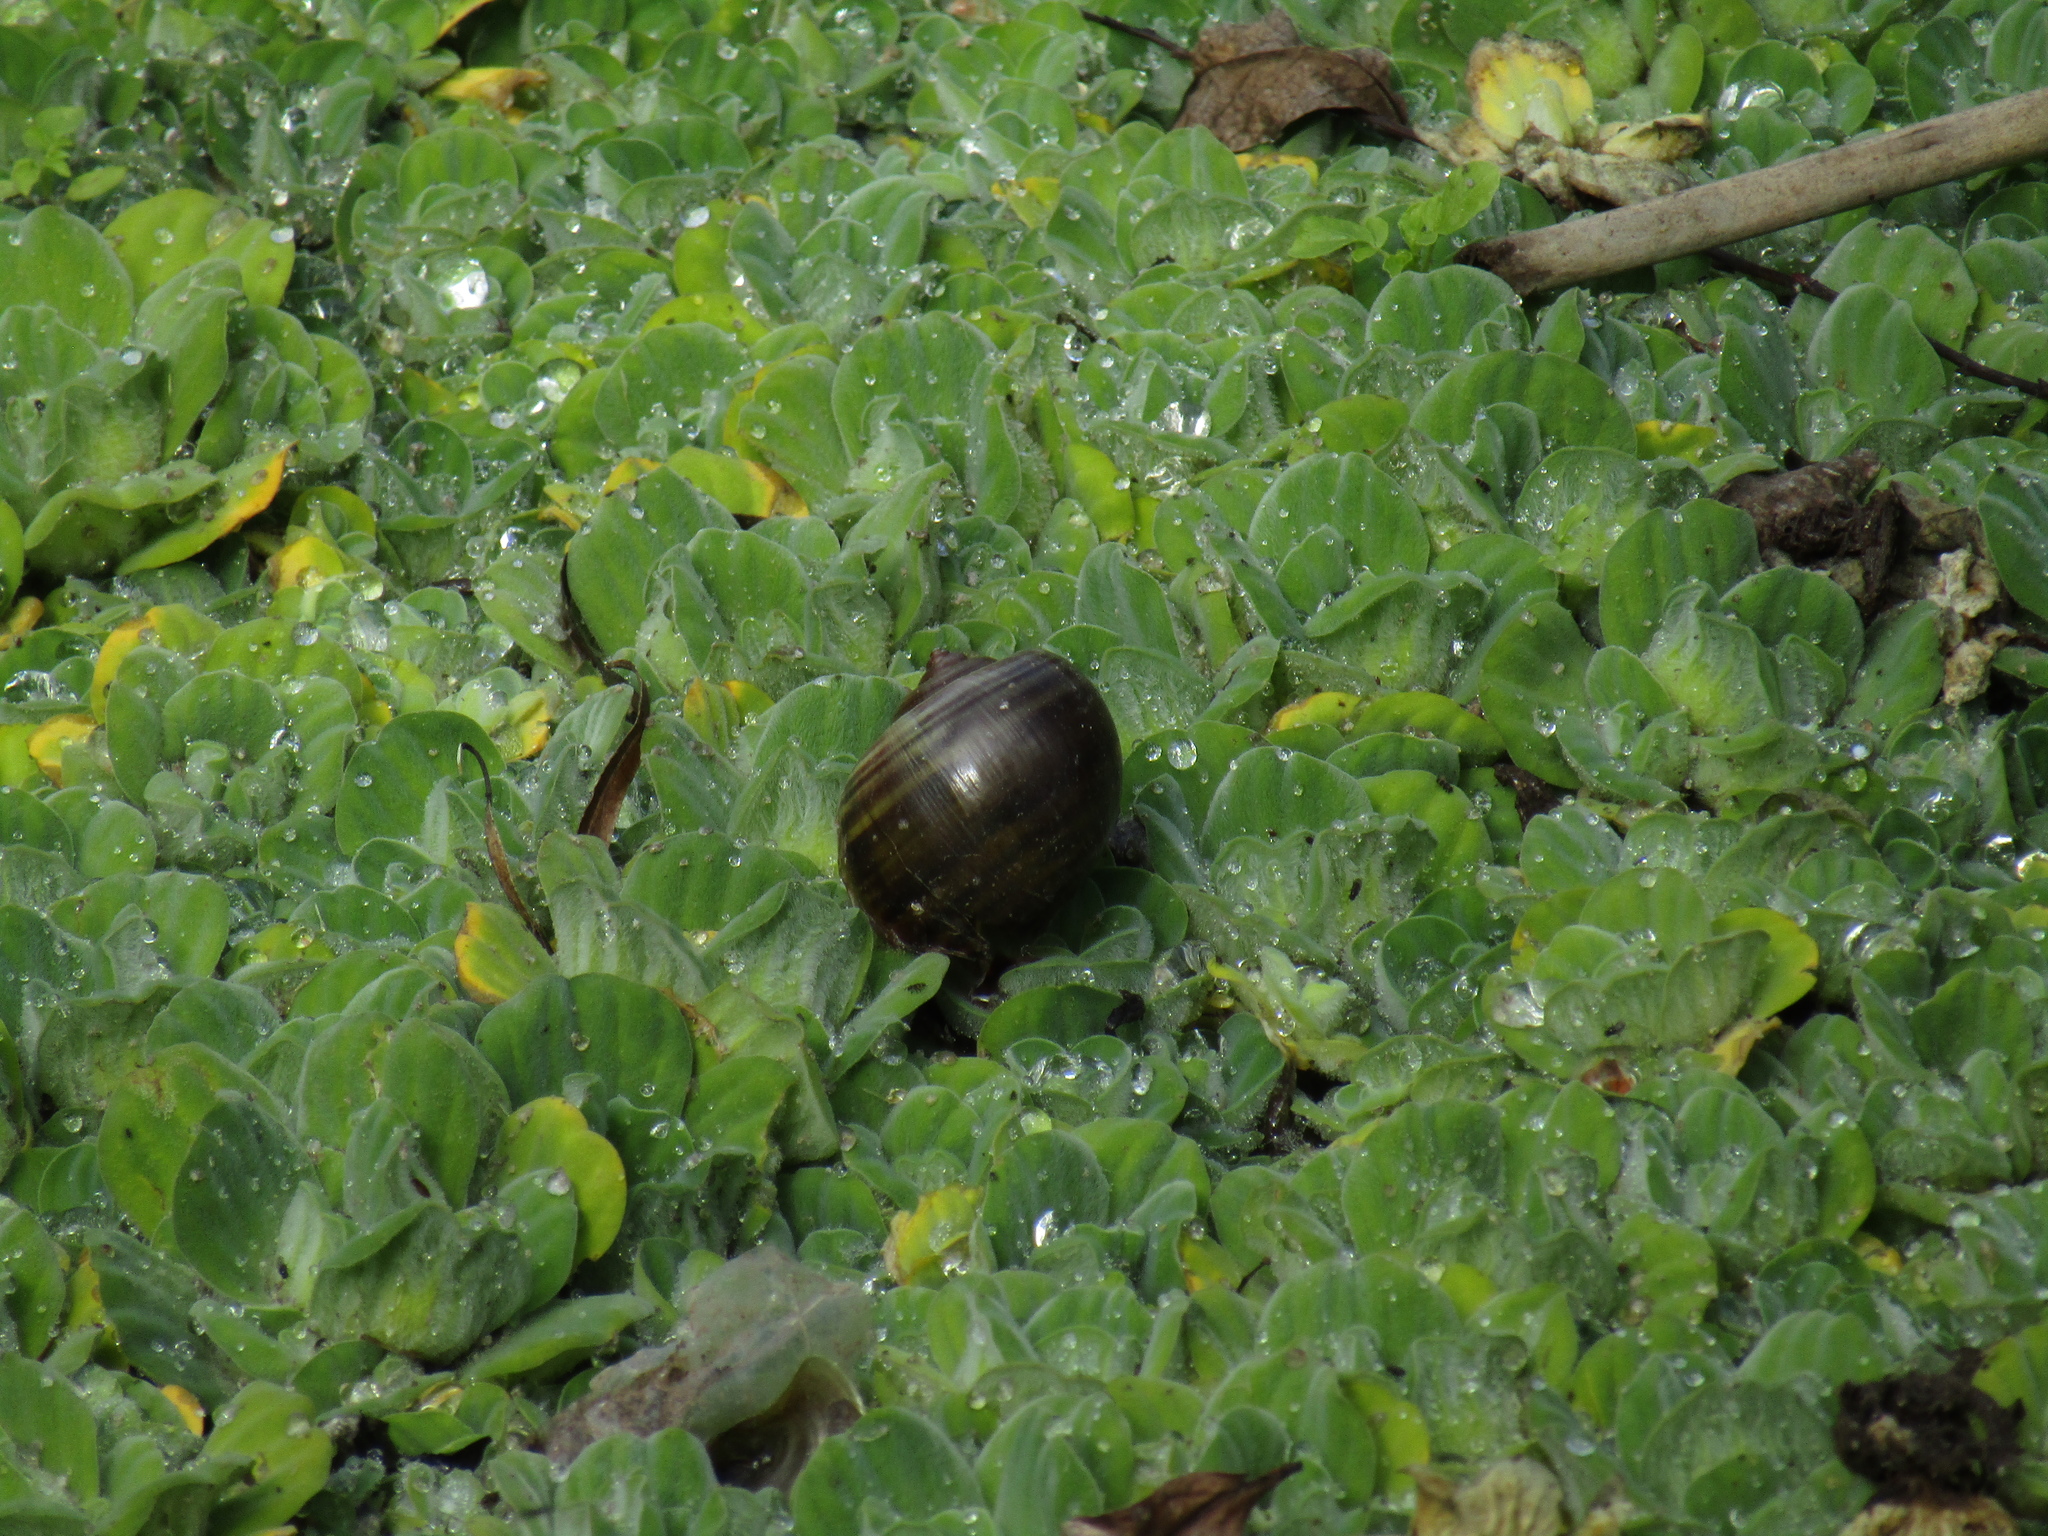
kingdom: Animalia
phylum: Mollusca
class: Gastropoda
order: Architaenioglossa
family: Ampullariidae
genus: Pomacea
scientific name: Pomacea canaliculata
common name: Channeled applesnail
